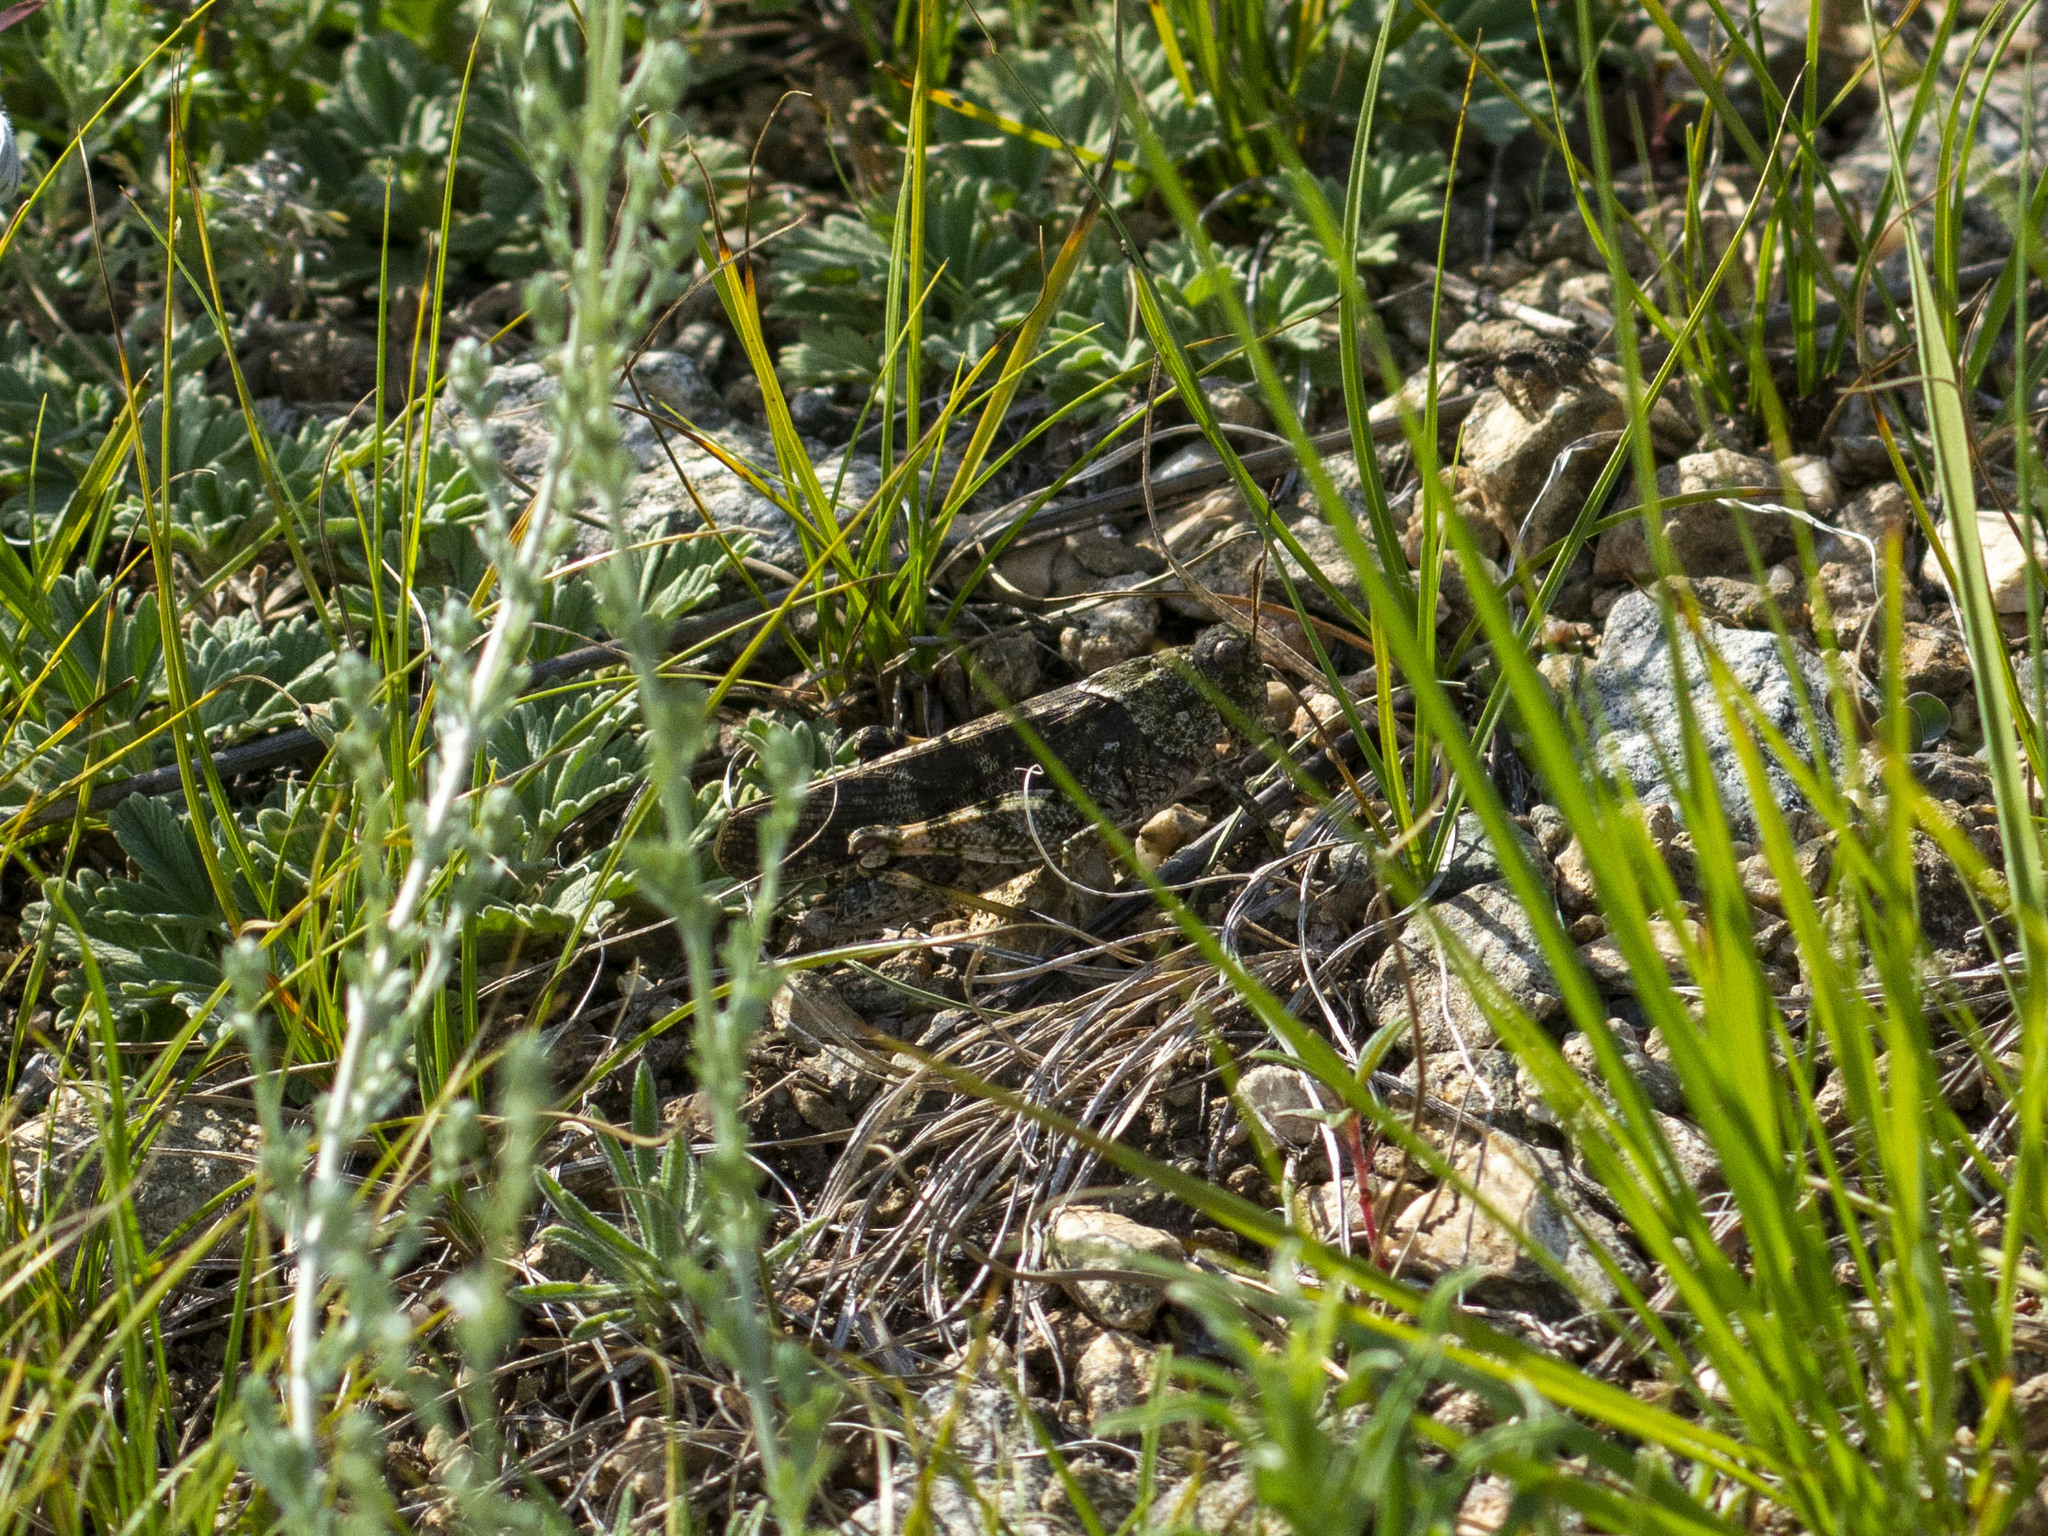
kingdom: Animalia
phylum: Arthropoda
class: Insecta
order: Orthoptera
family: Acrididae
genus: Bryodemella
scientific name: Bryodemella tuberculata
